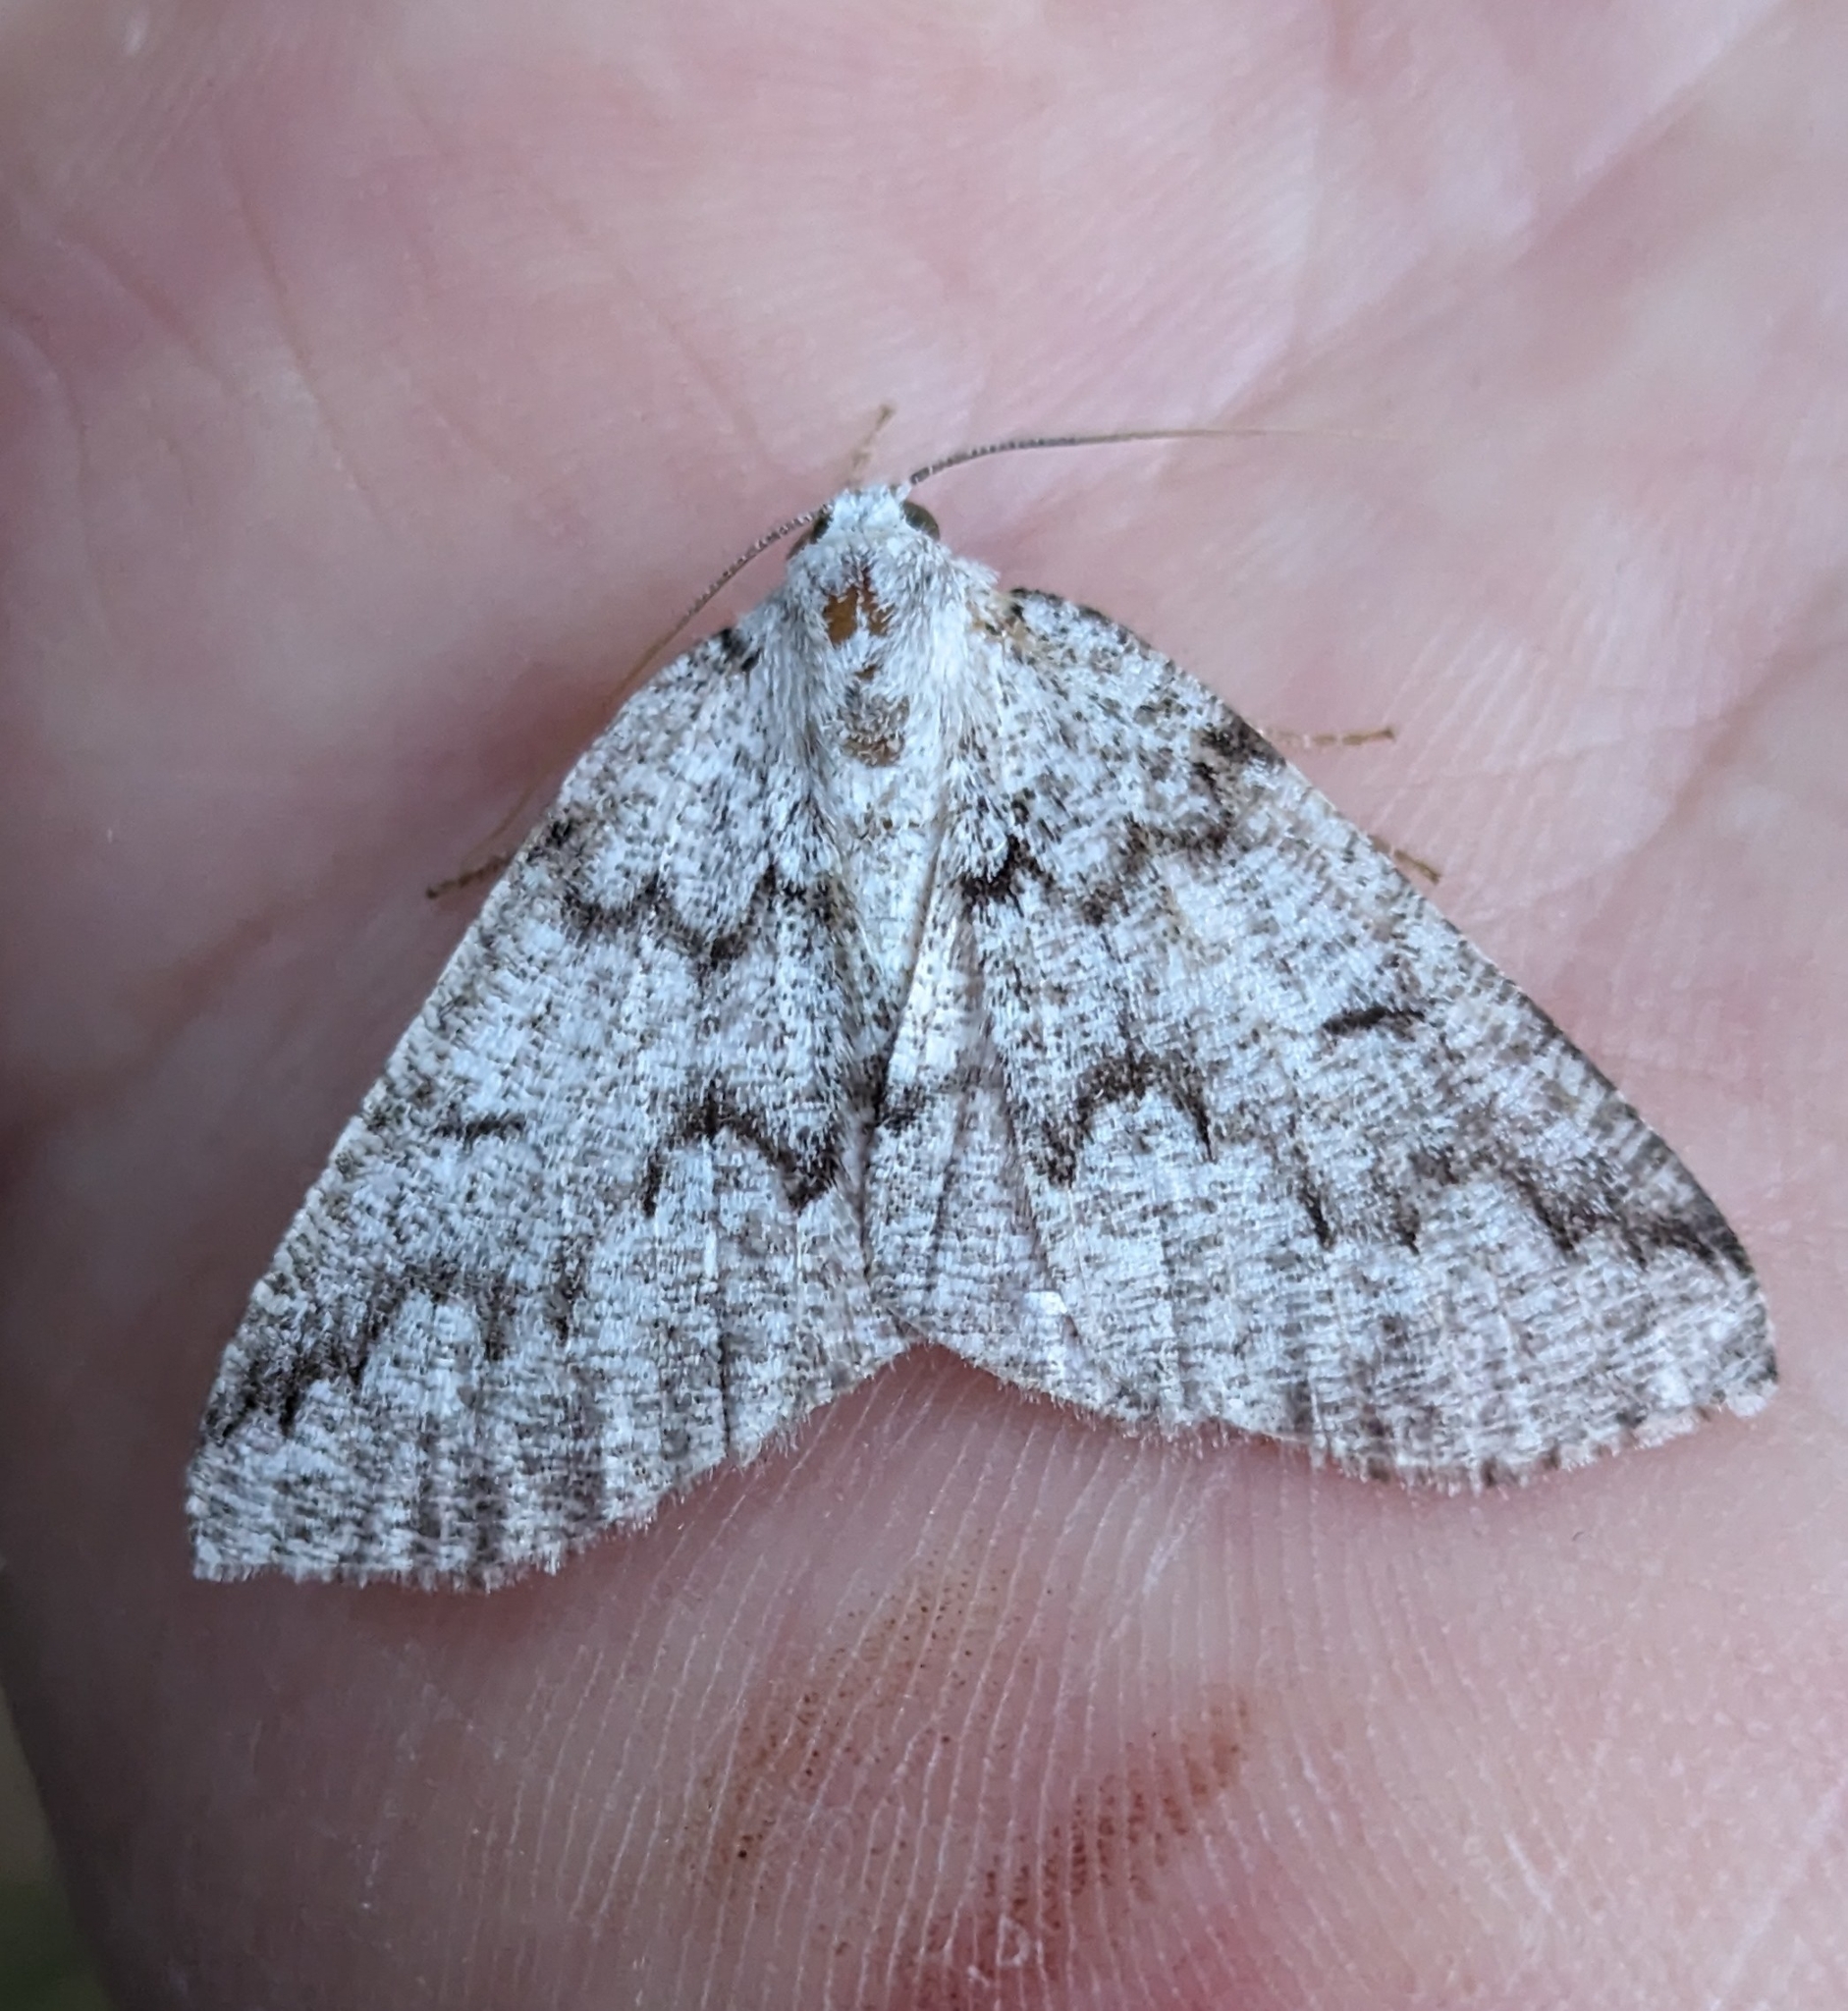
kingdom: Animalia
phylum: Arthropoda
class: Insecta
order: Lepidoptera
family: Geometridae
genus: Sabulodes
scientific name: Sabulodes
